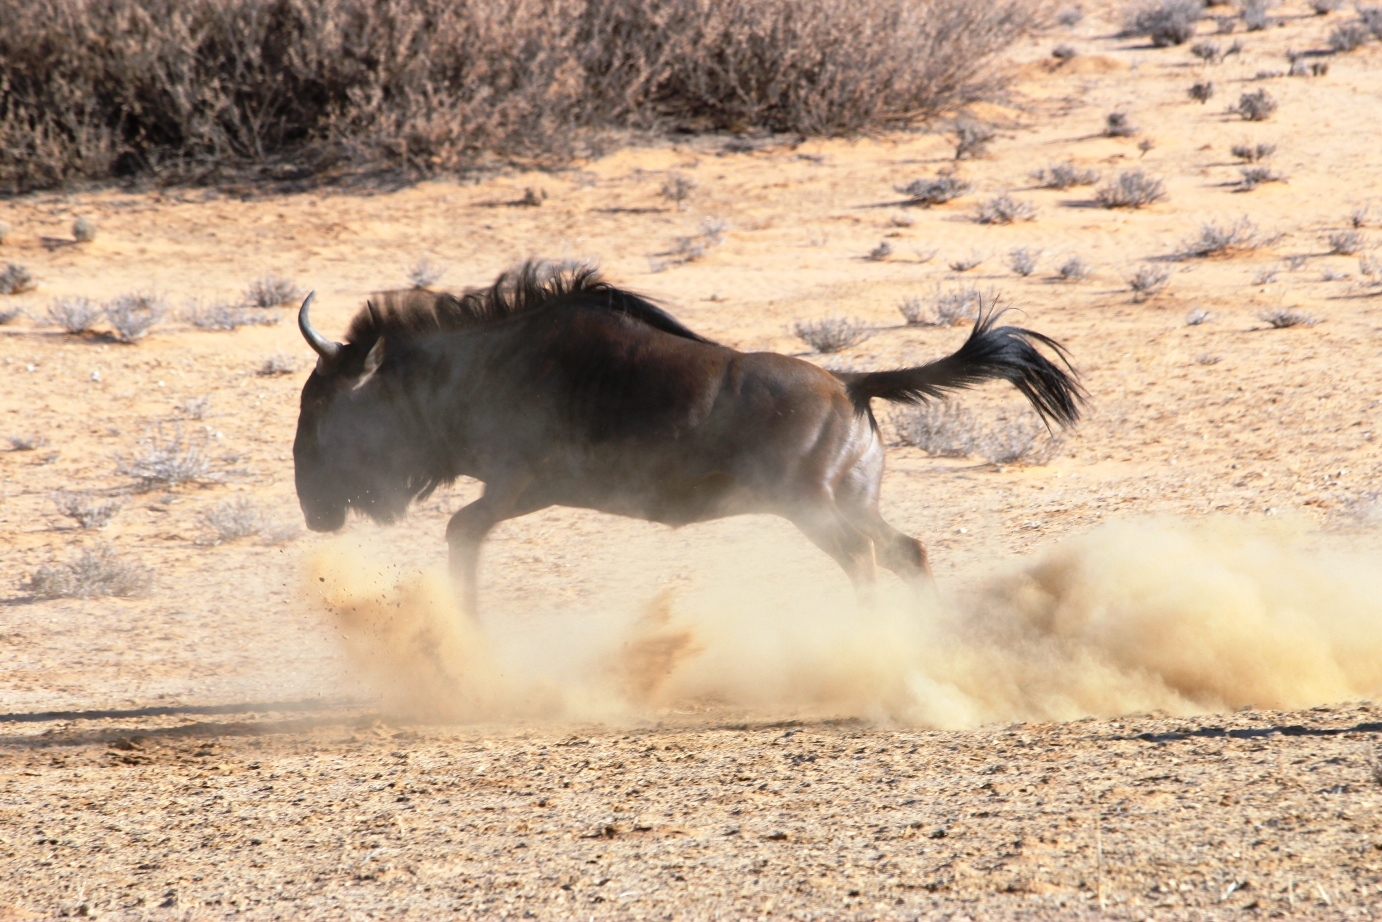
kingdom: Animalia
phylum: Chordata
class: Mammalia
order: Artiodactyla
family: Bovidae
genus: Connochaetes
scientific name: Connochaetes taurinus
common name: Blue wildebeest
